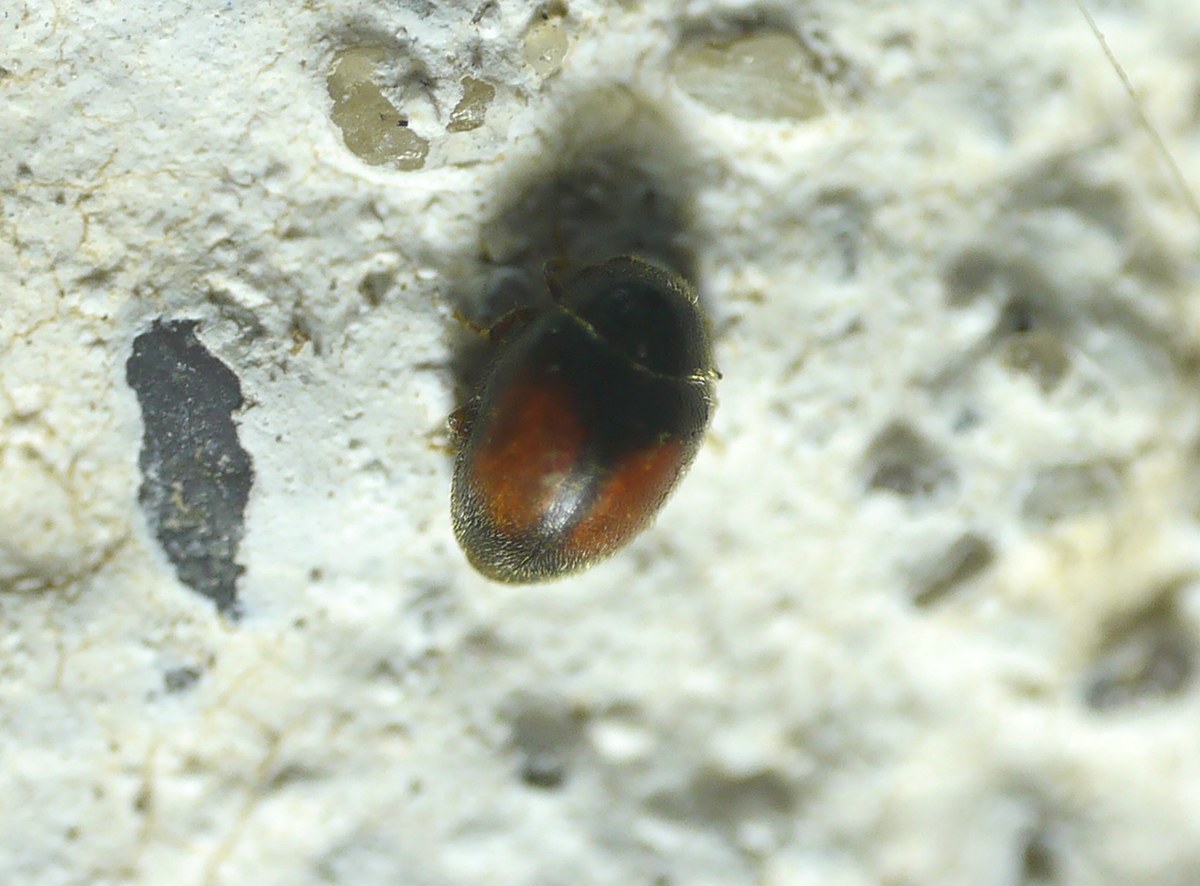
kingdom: Animalia
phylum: Arthropoda
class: Insecta
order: Coleoptera
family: Coccinellidae
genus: Scymnus
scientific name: Scymnus flagellisiphonatus
